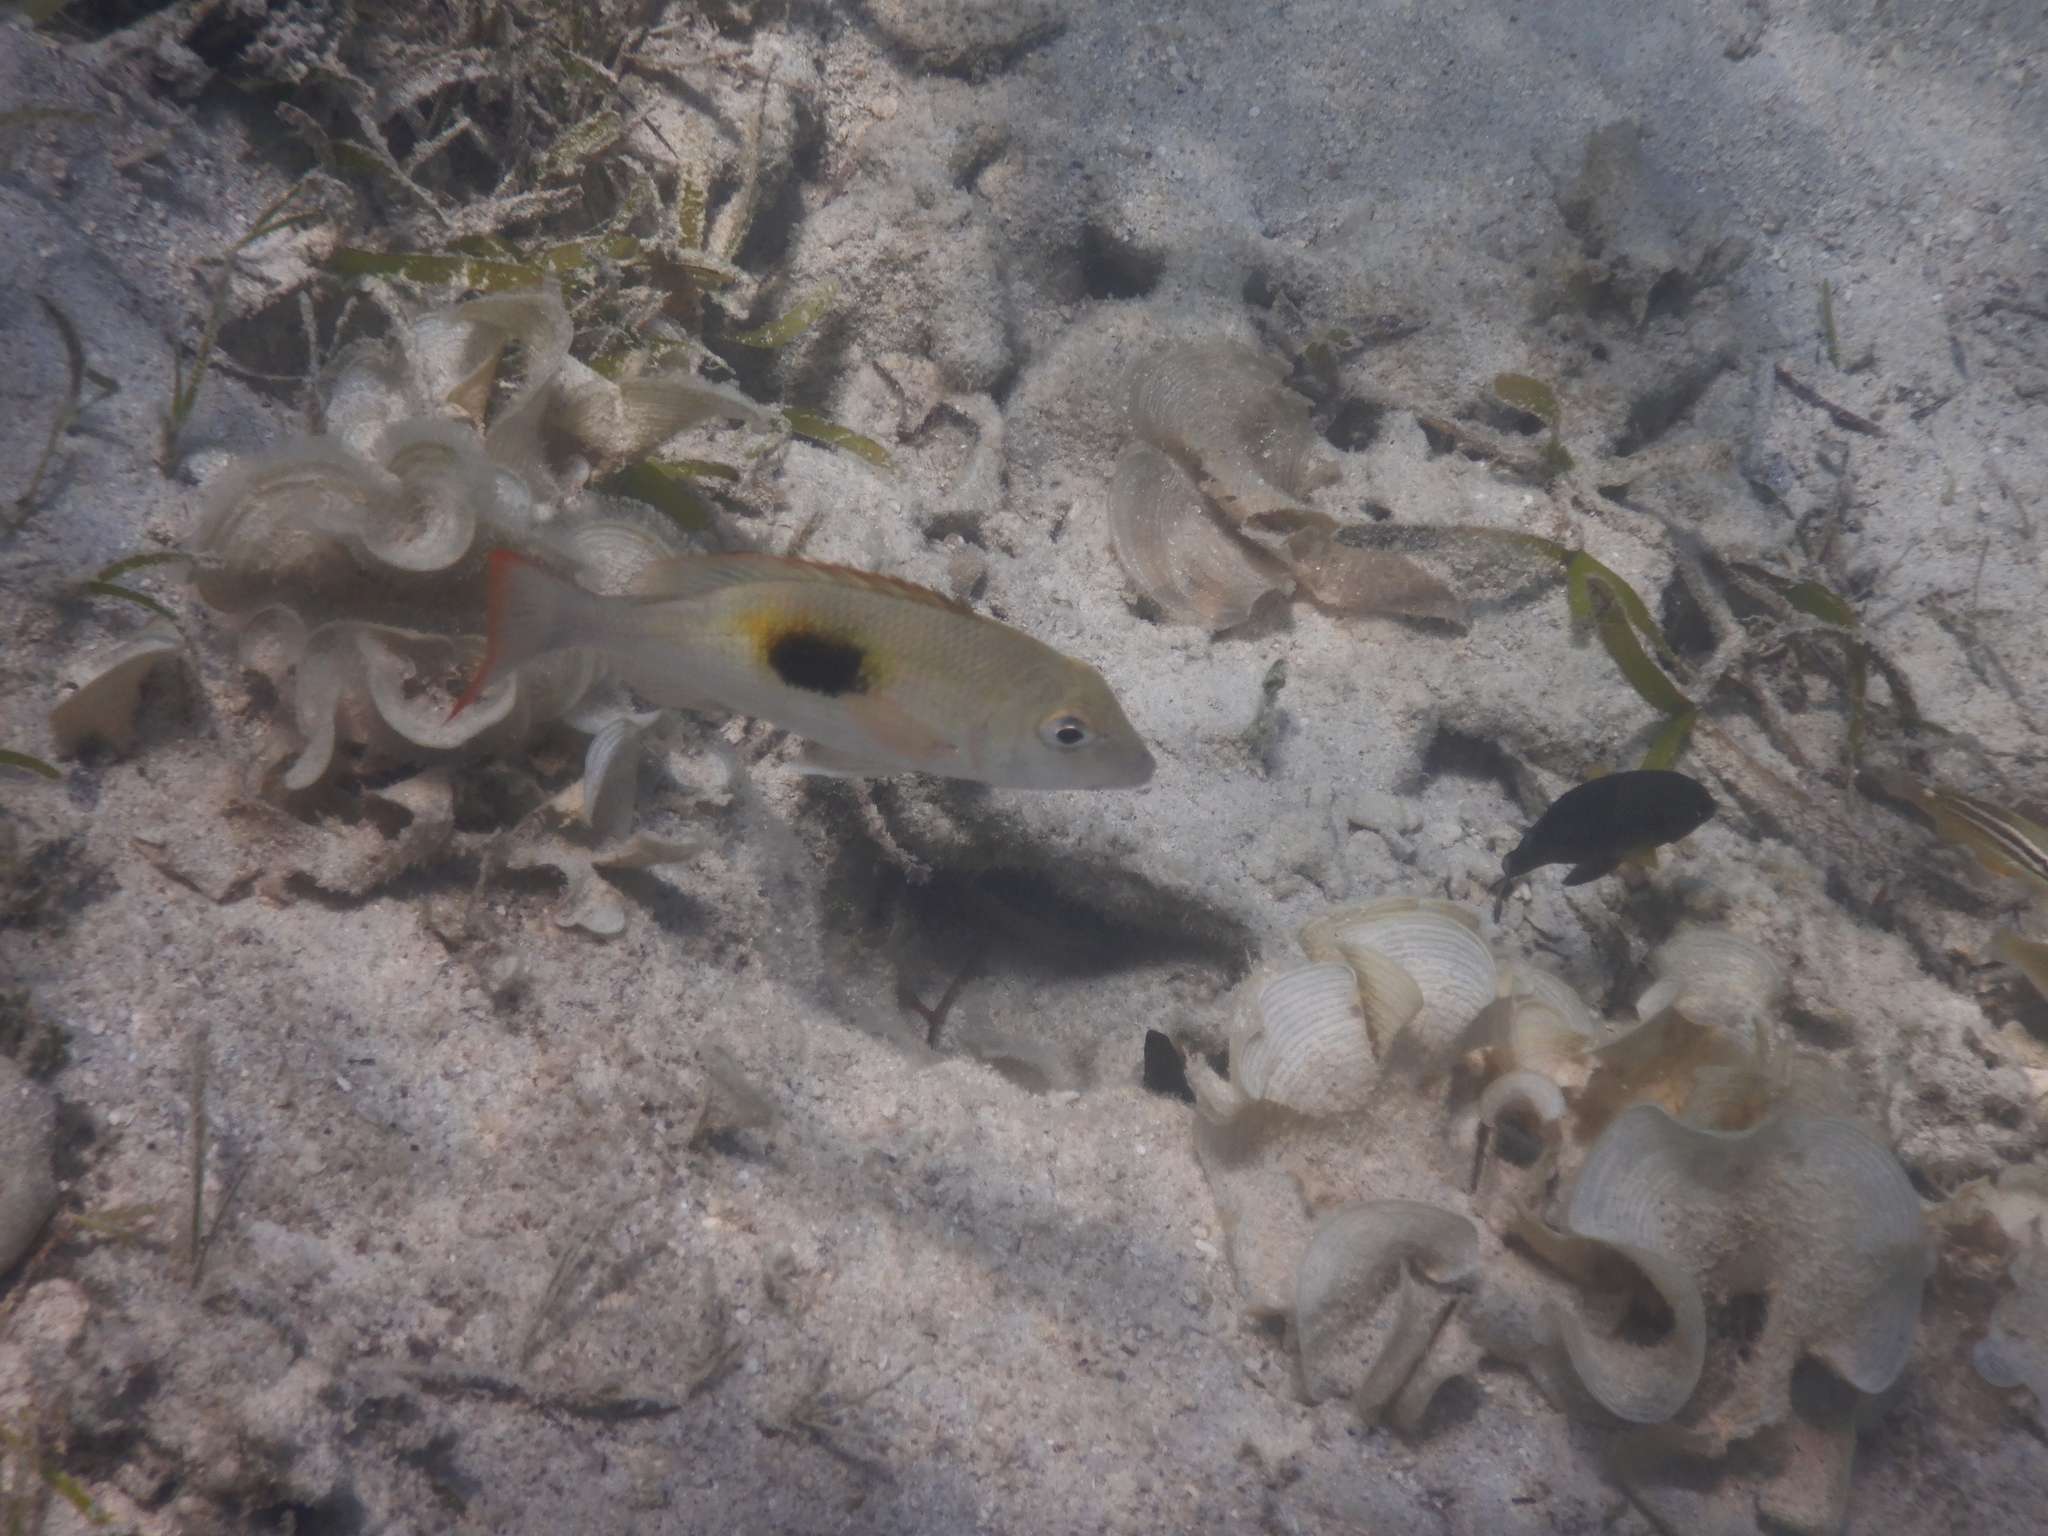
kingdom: Animalia
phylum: Chordata
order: Perciformes
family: Lethrinidae
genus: Lethrinus
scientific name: Lethrinus harak
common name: Blackspot emperor
